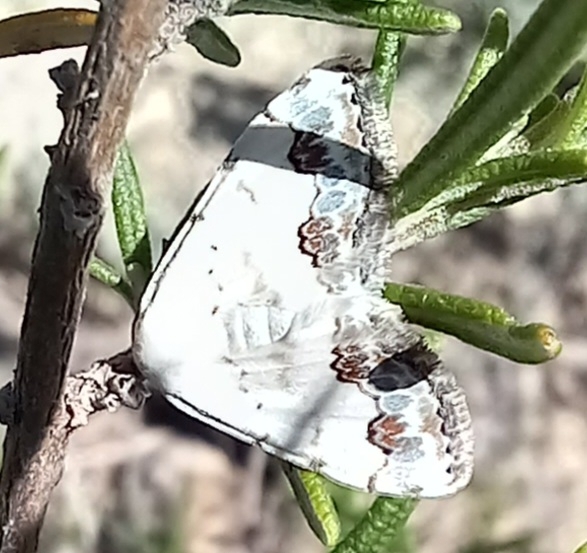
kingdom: Animalia
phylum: Arthropoda
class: Insecta
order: Lepidoptera
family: Geometridae
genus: Scopula
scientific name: Scopula decorata
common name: Middle lace border
